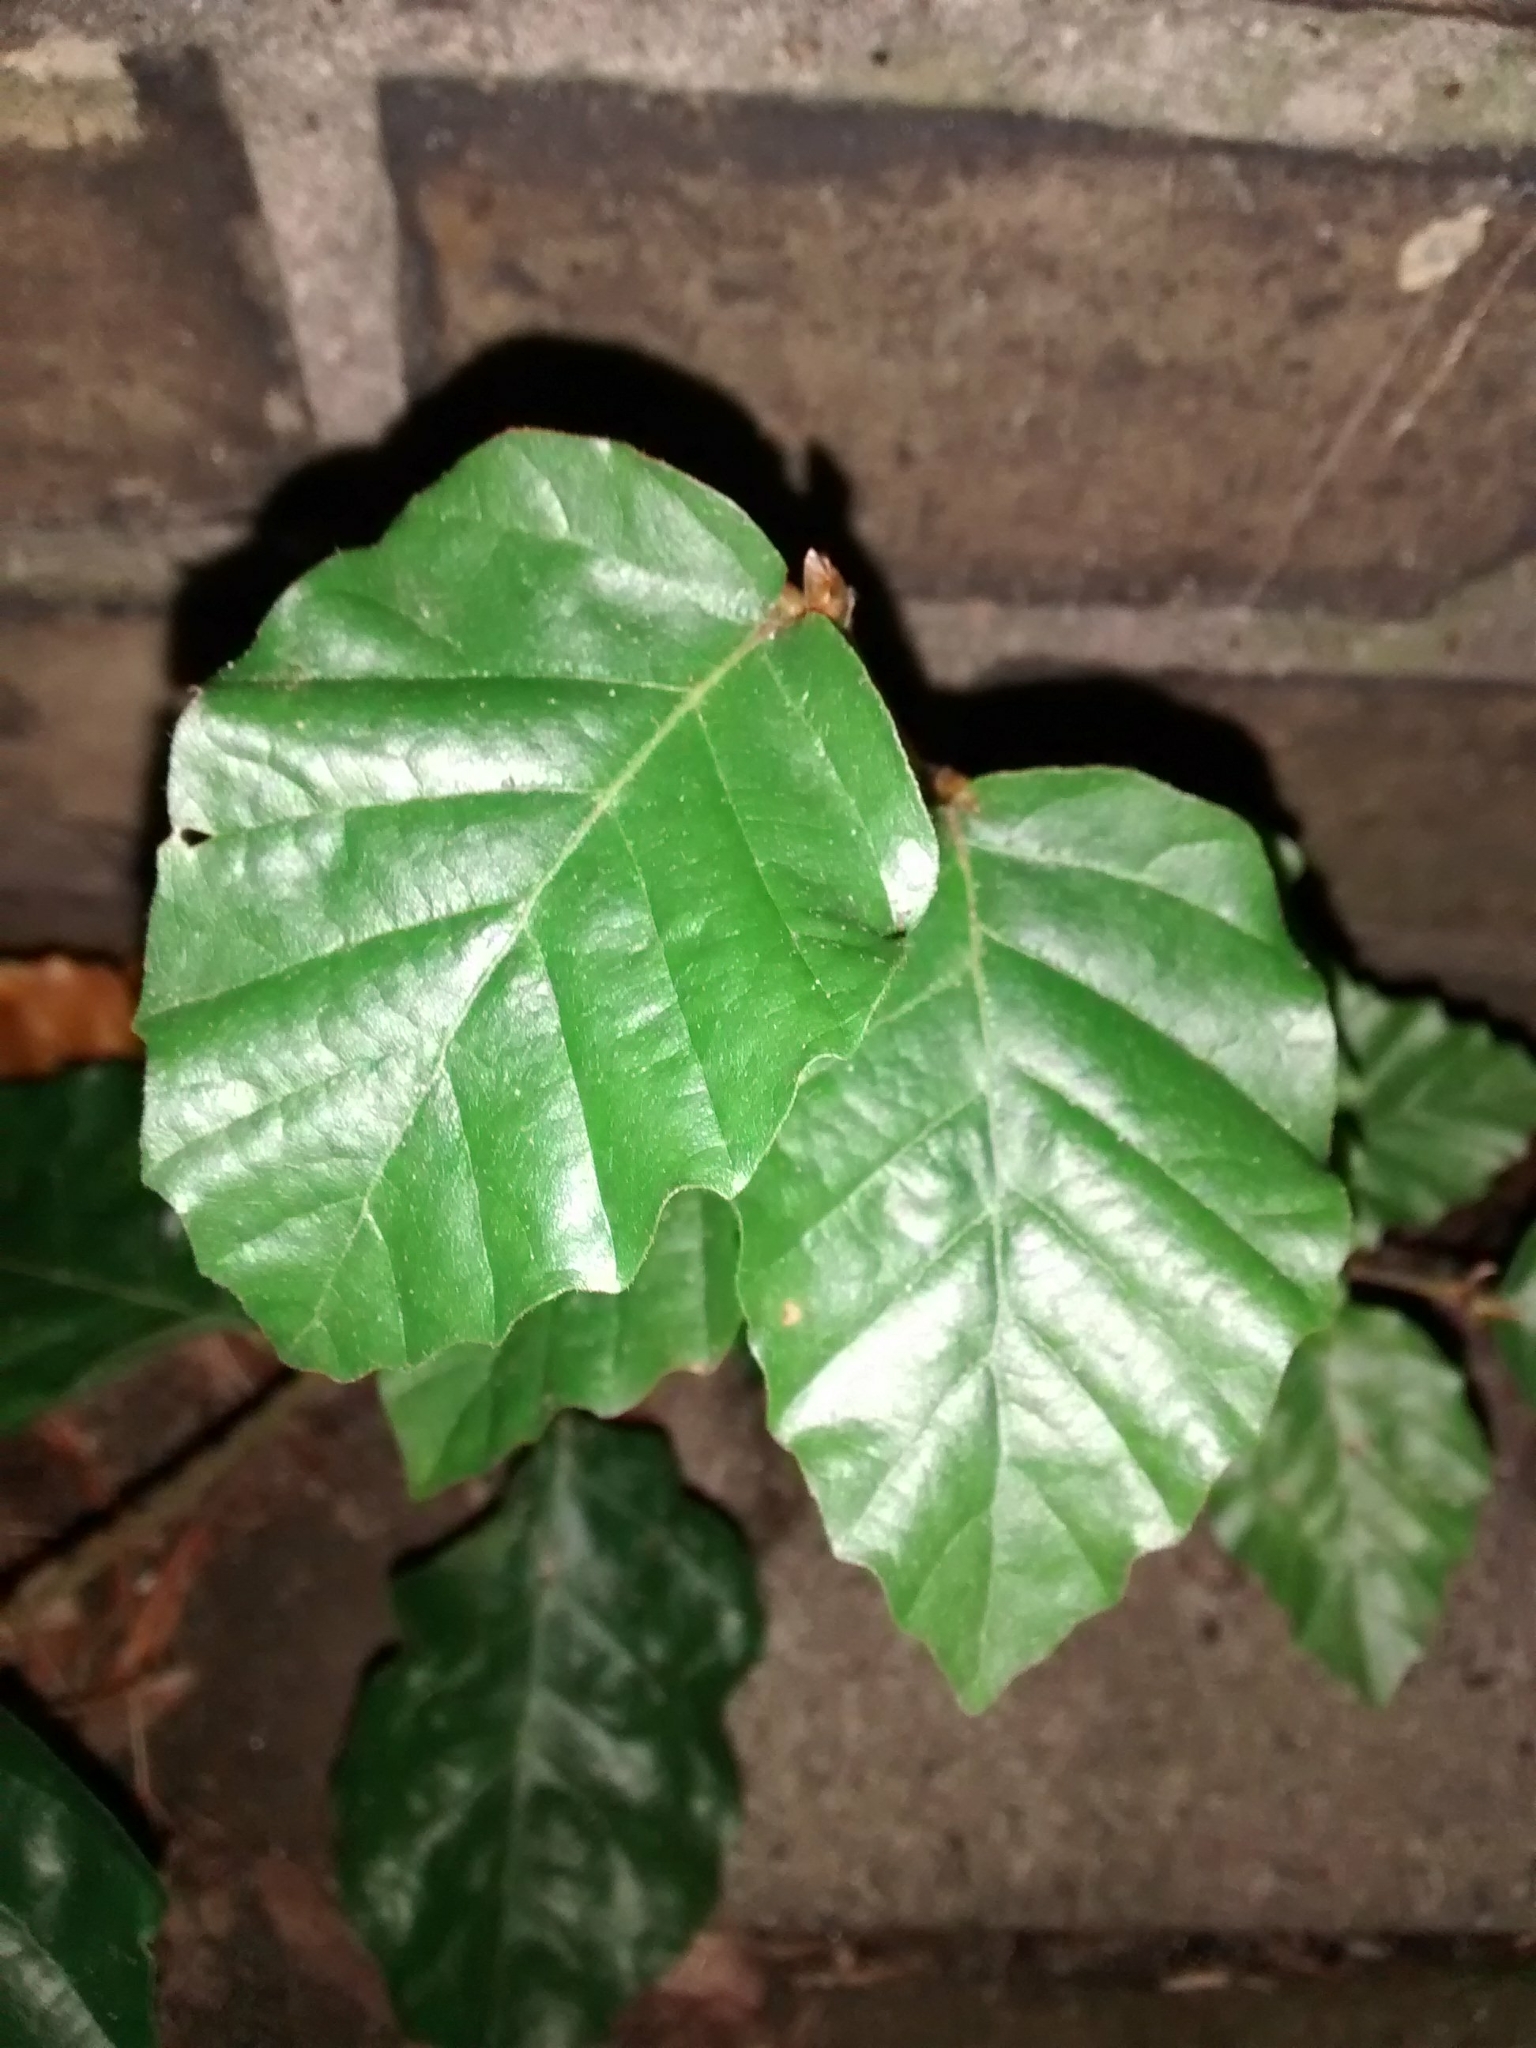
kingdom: Plantae
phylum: Tracheophyta
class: Magnoliopsida
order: Fagales
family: Fagaceae
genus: Fagus
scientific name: Fagus sylvatica
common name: Beech
